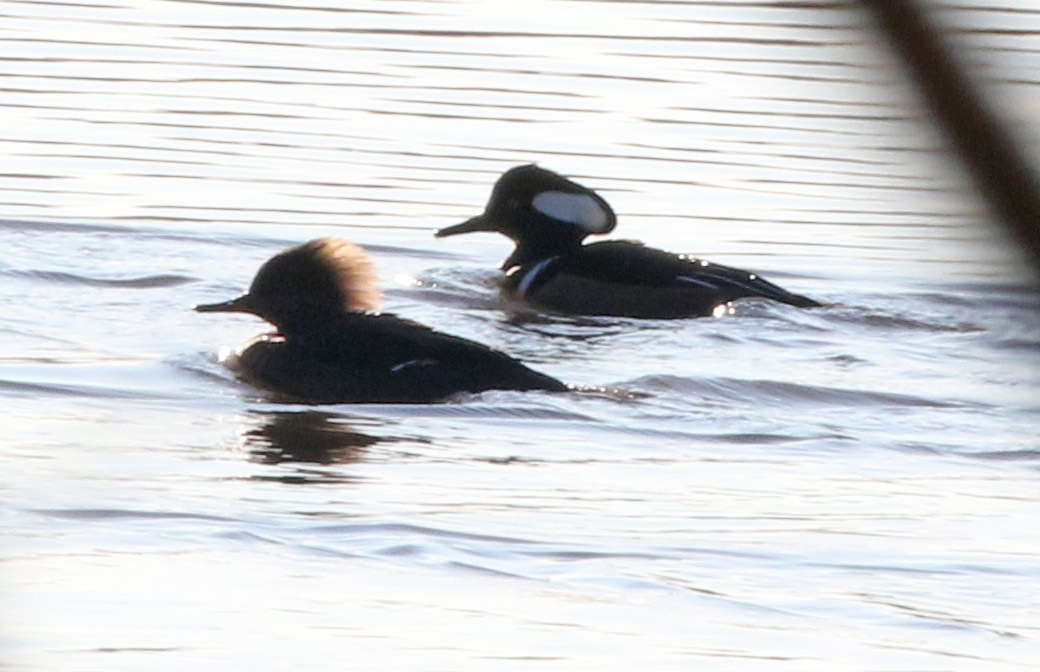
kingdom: Animalia
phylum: Chordata
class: Aves
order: Anseriformes
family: Anatidae
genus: Lophodytes
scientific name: Lophodytes cucullatus
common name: Hooded merganser
